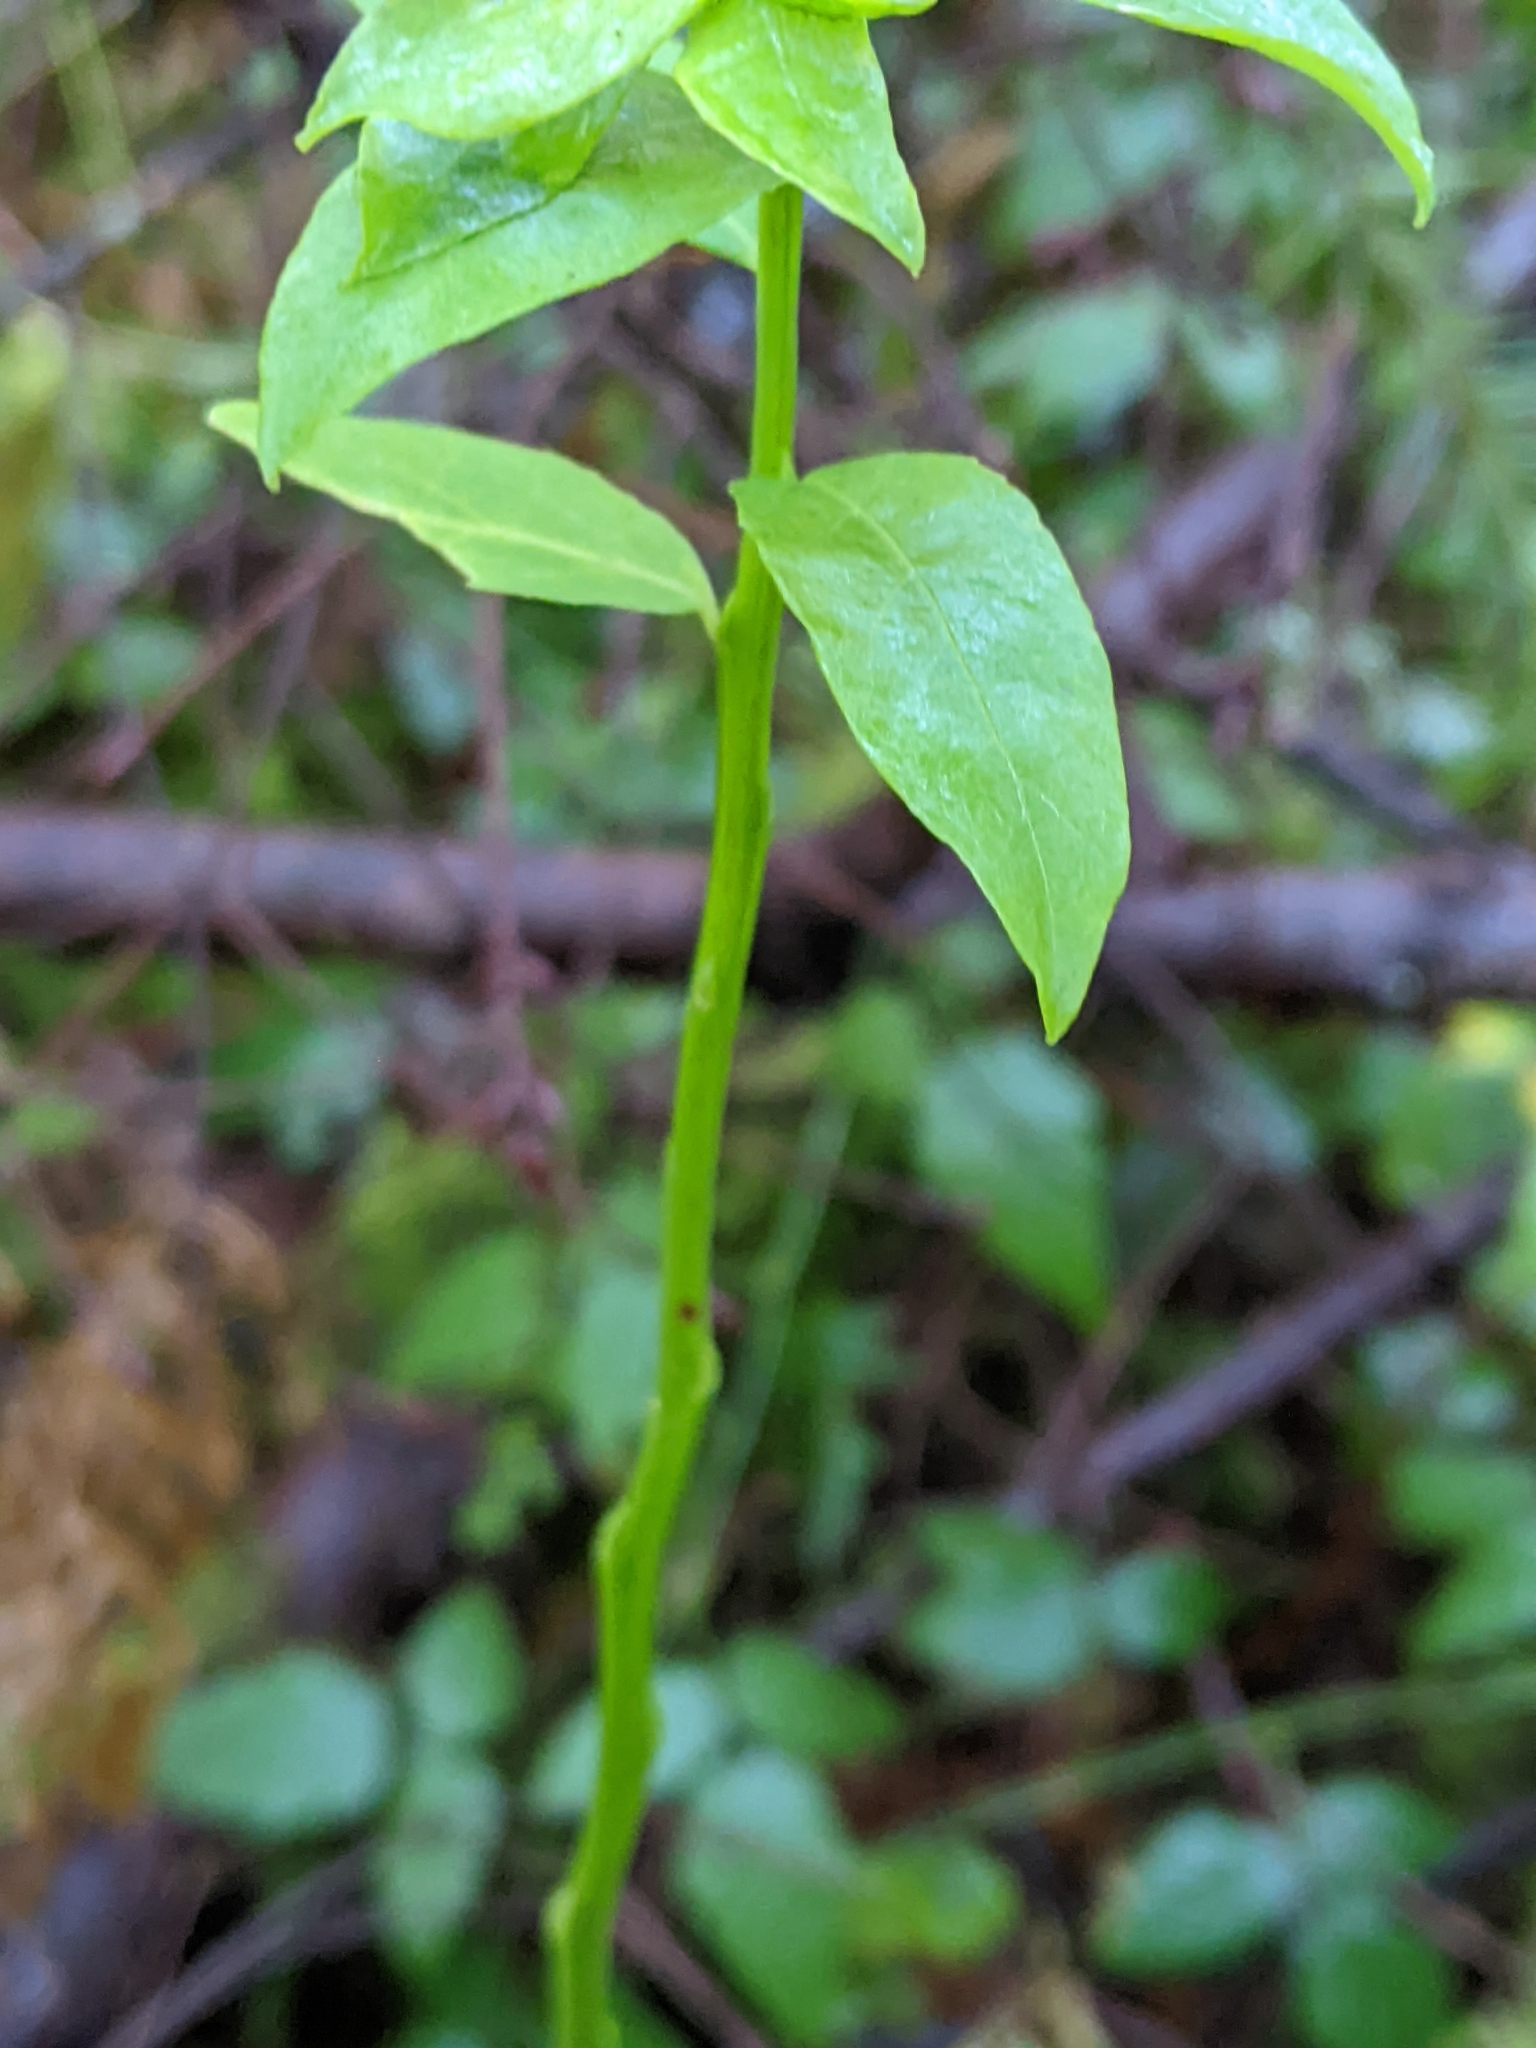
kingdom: Plantae
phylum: Tracheophyta
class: Magnoliopsida
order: Ericales
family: Ericaceae
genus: Vaccinium
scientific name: Vaccinium parvifolium
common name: Red-huckleberry
